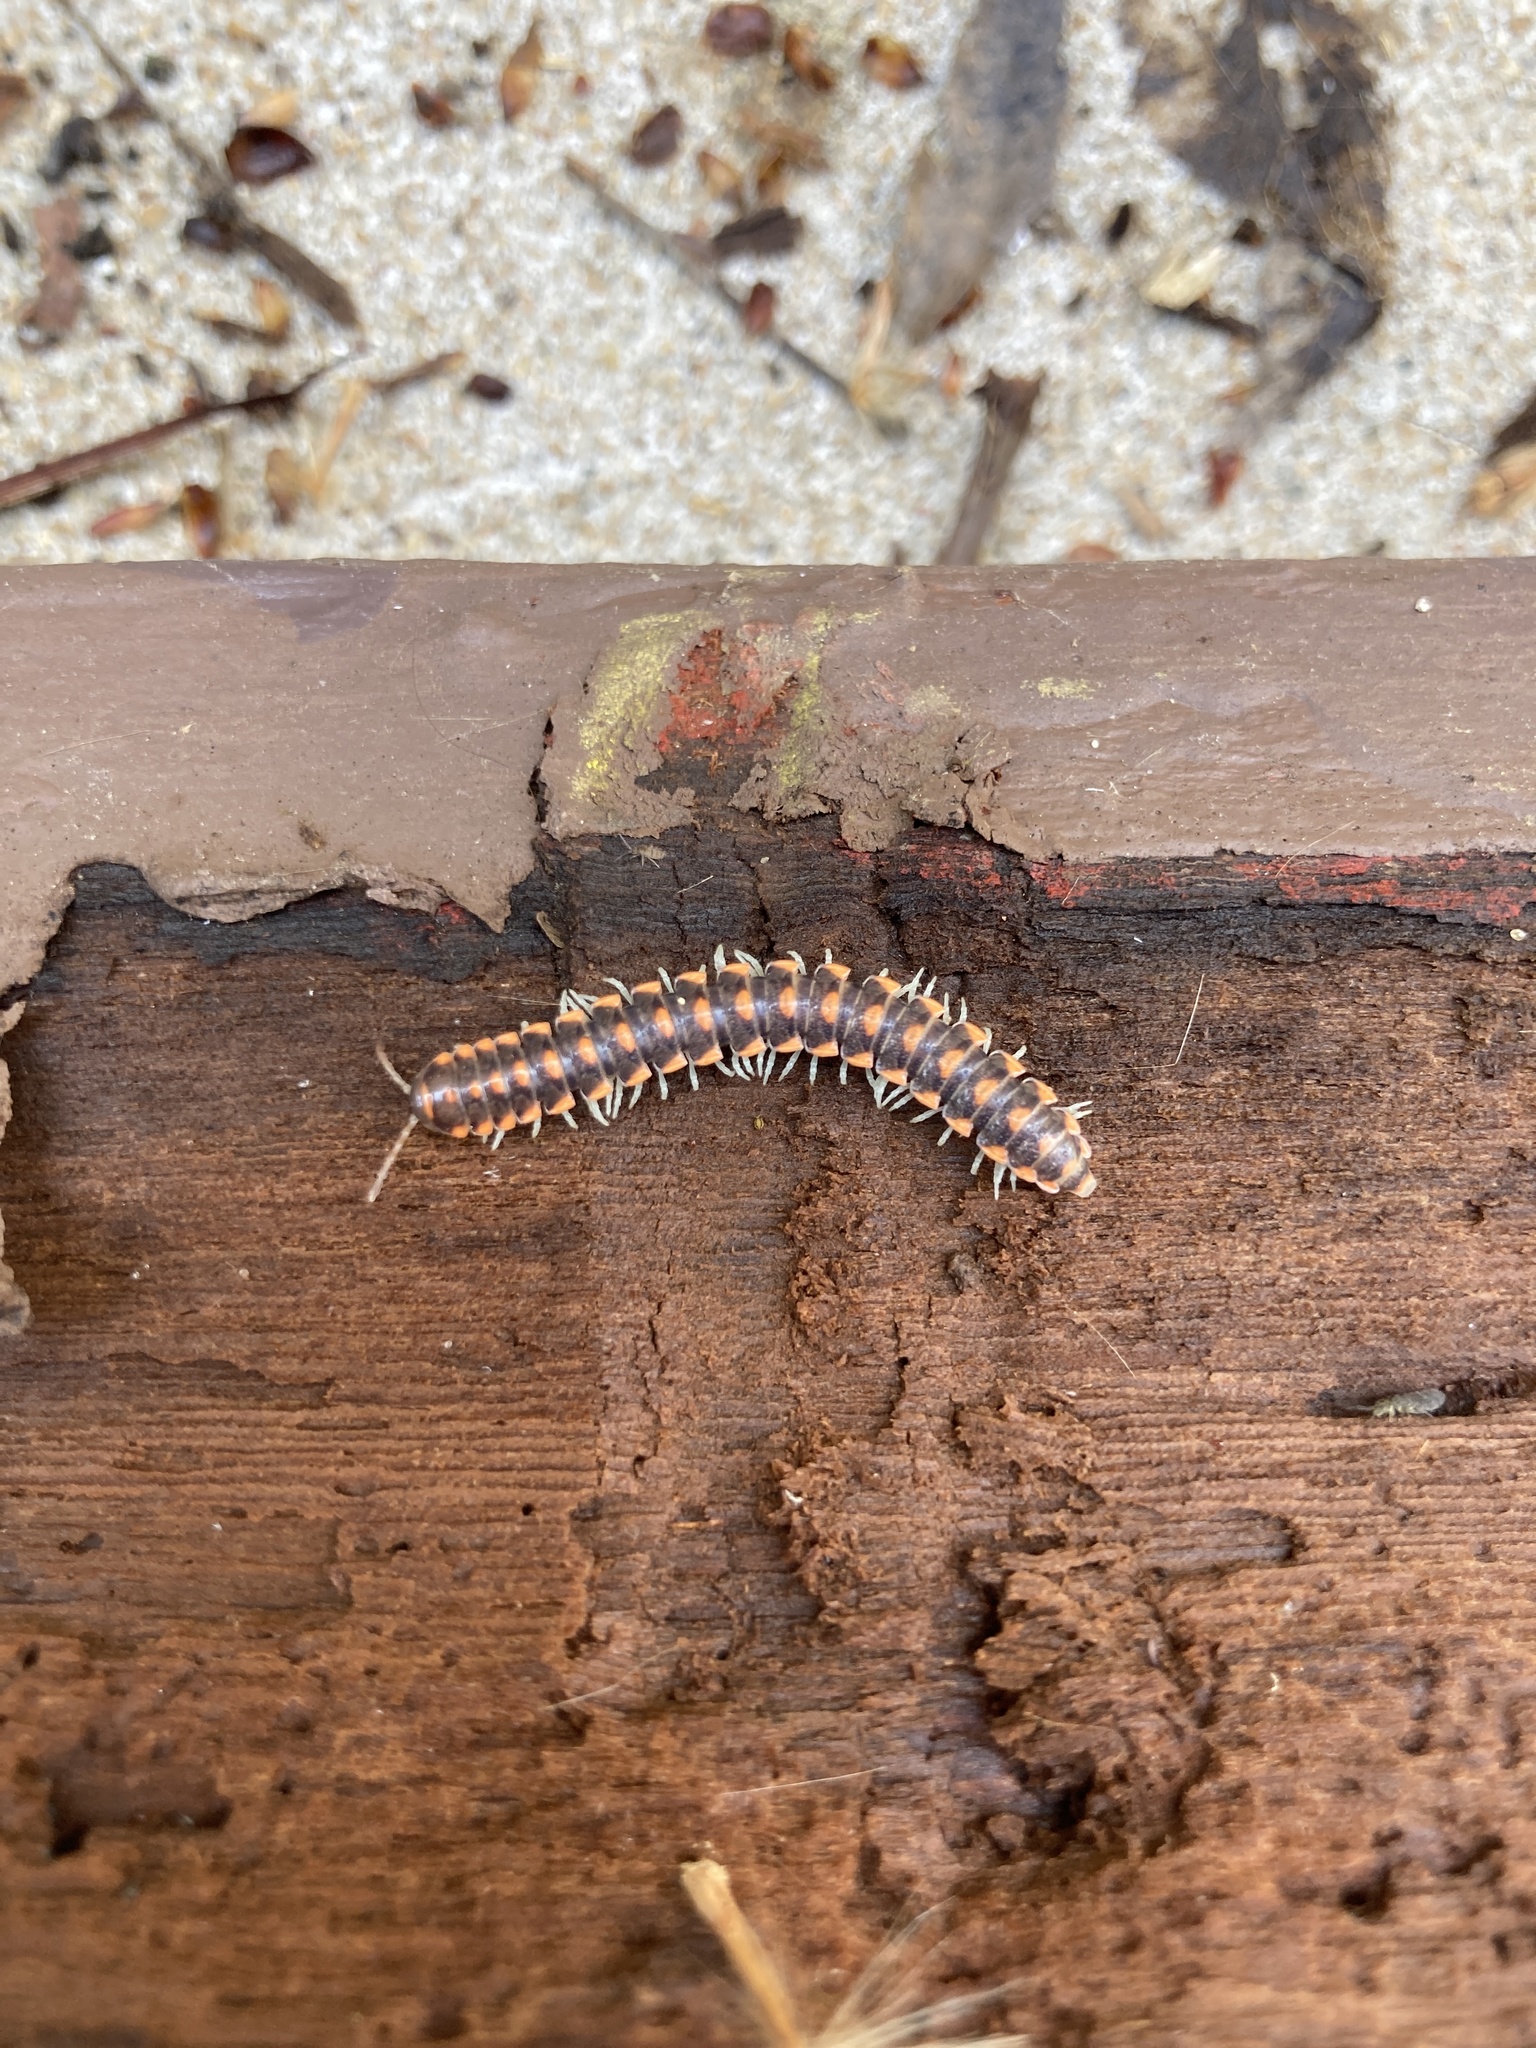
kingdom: Animalia
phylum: Arthropoda
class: Diplopoda
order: Polydesmida
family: Xystodesmidae
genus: Euryurus
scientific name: Euryurus evides
